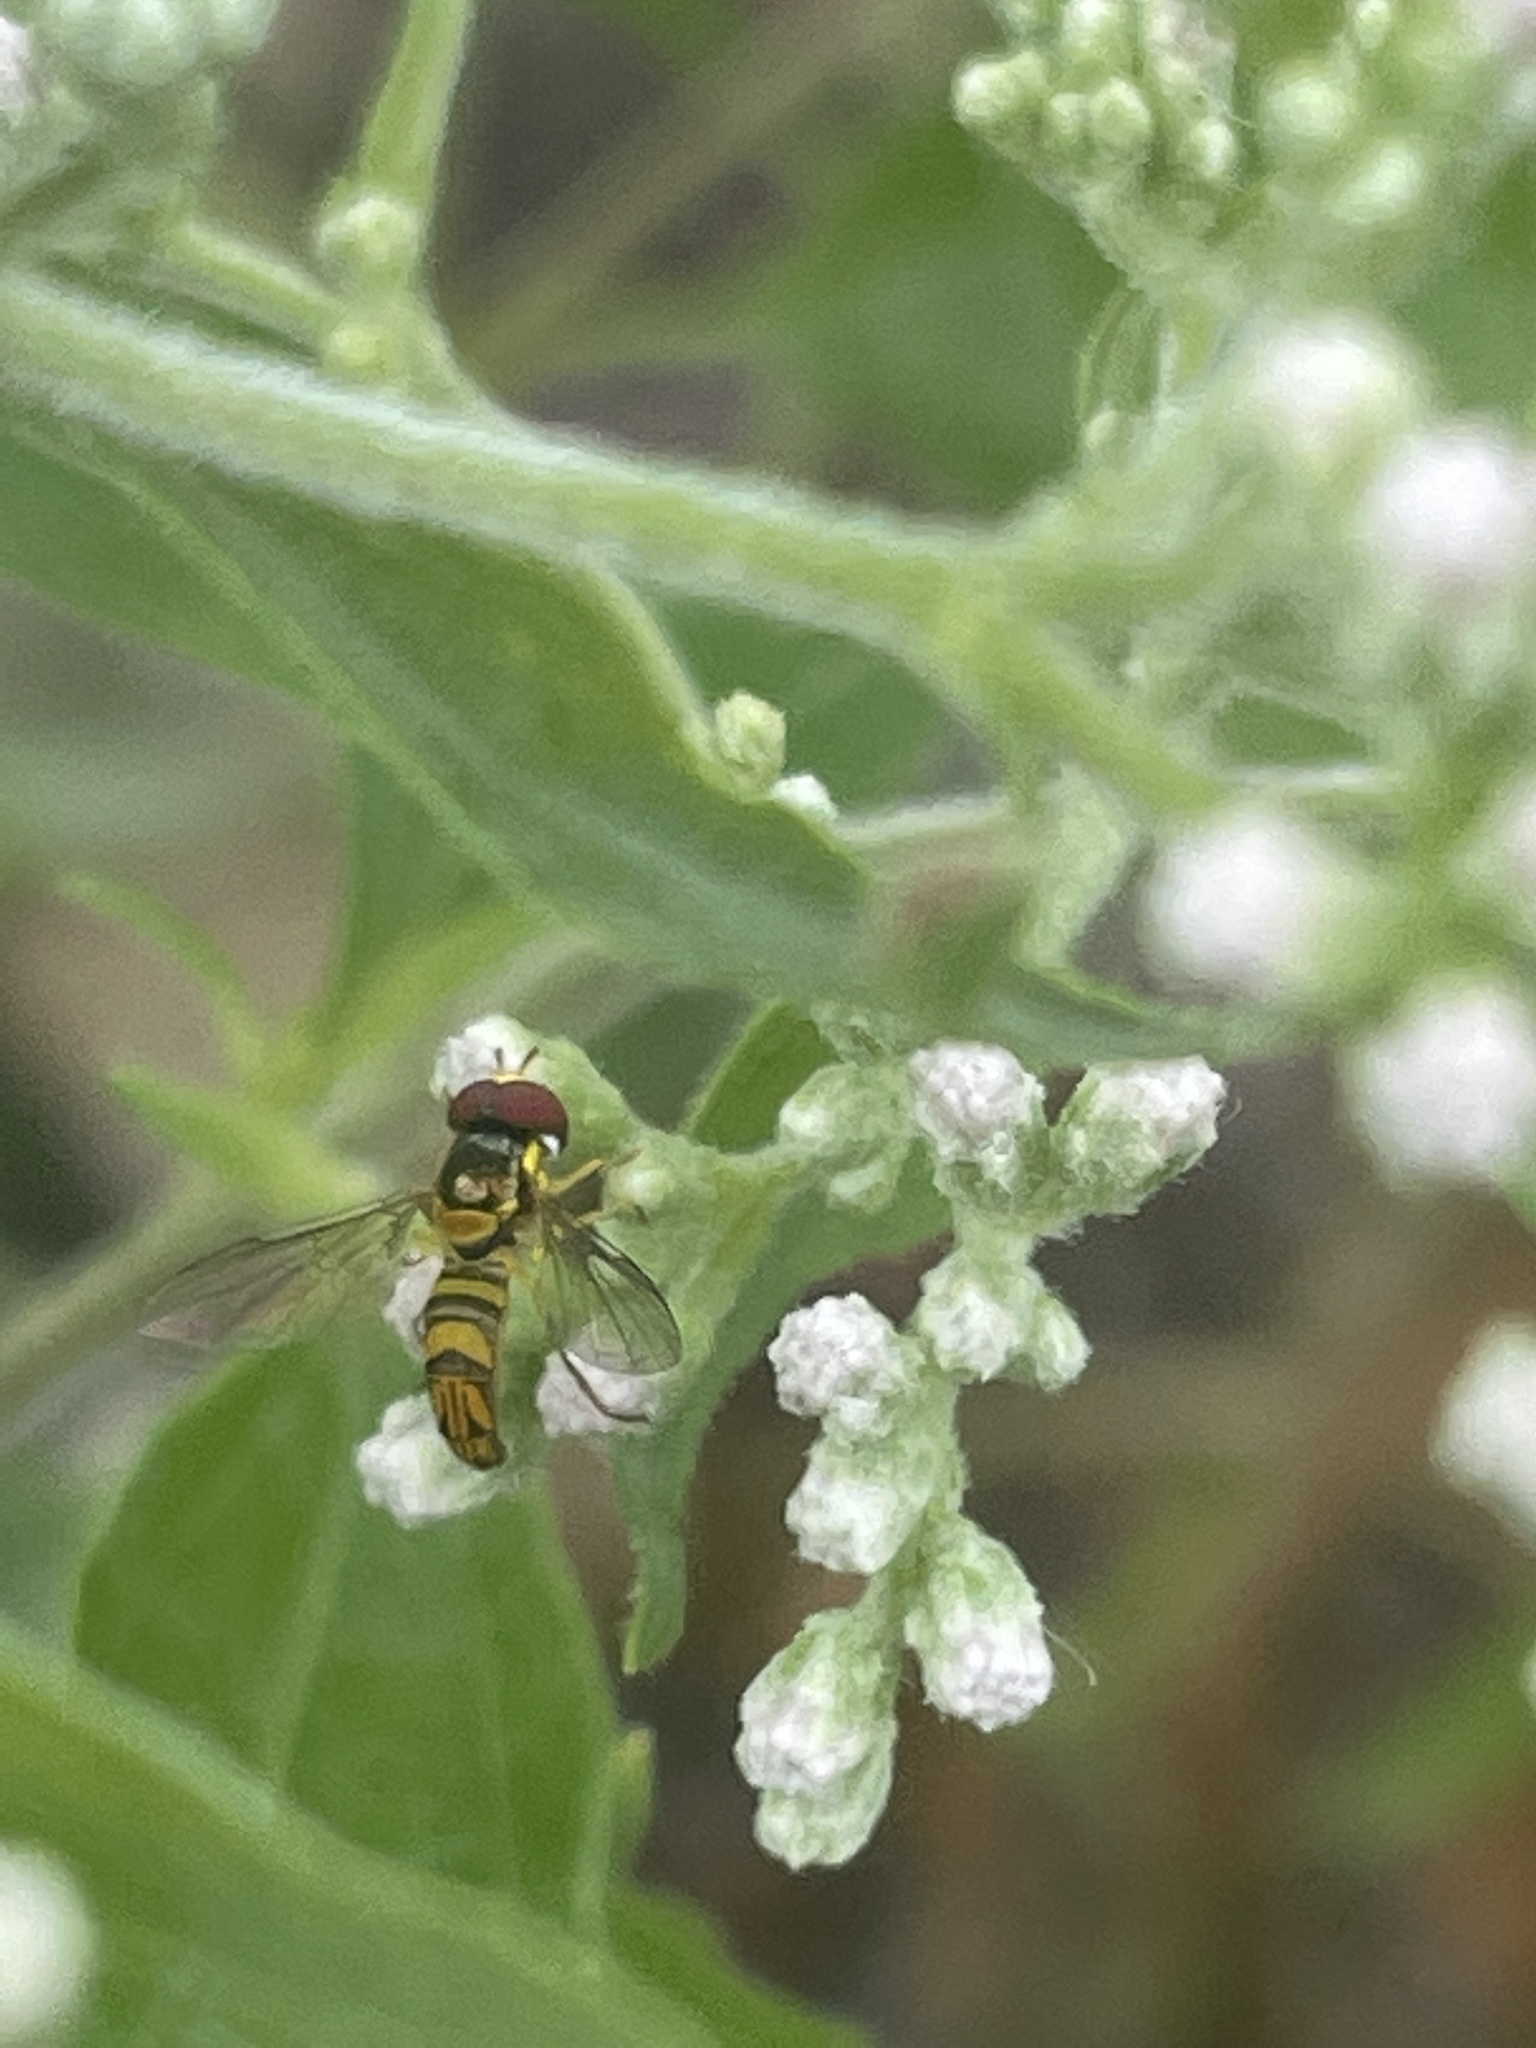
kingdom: Animalia
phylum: Arthropoda
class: Insecta
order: Diptera
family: Syrphidae
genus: Allograpta
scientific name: Allograpta obliqua
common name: Common oblique syrphid
